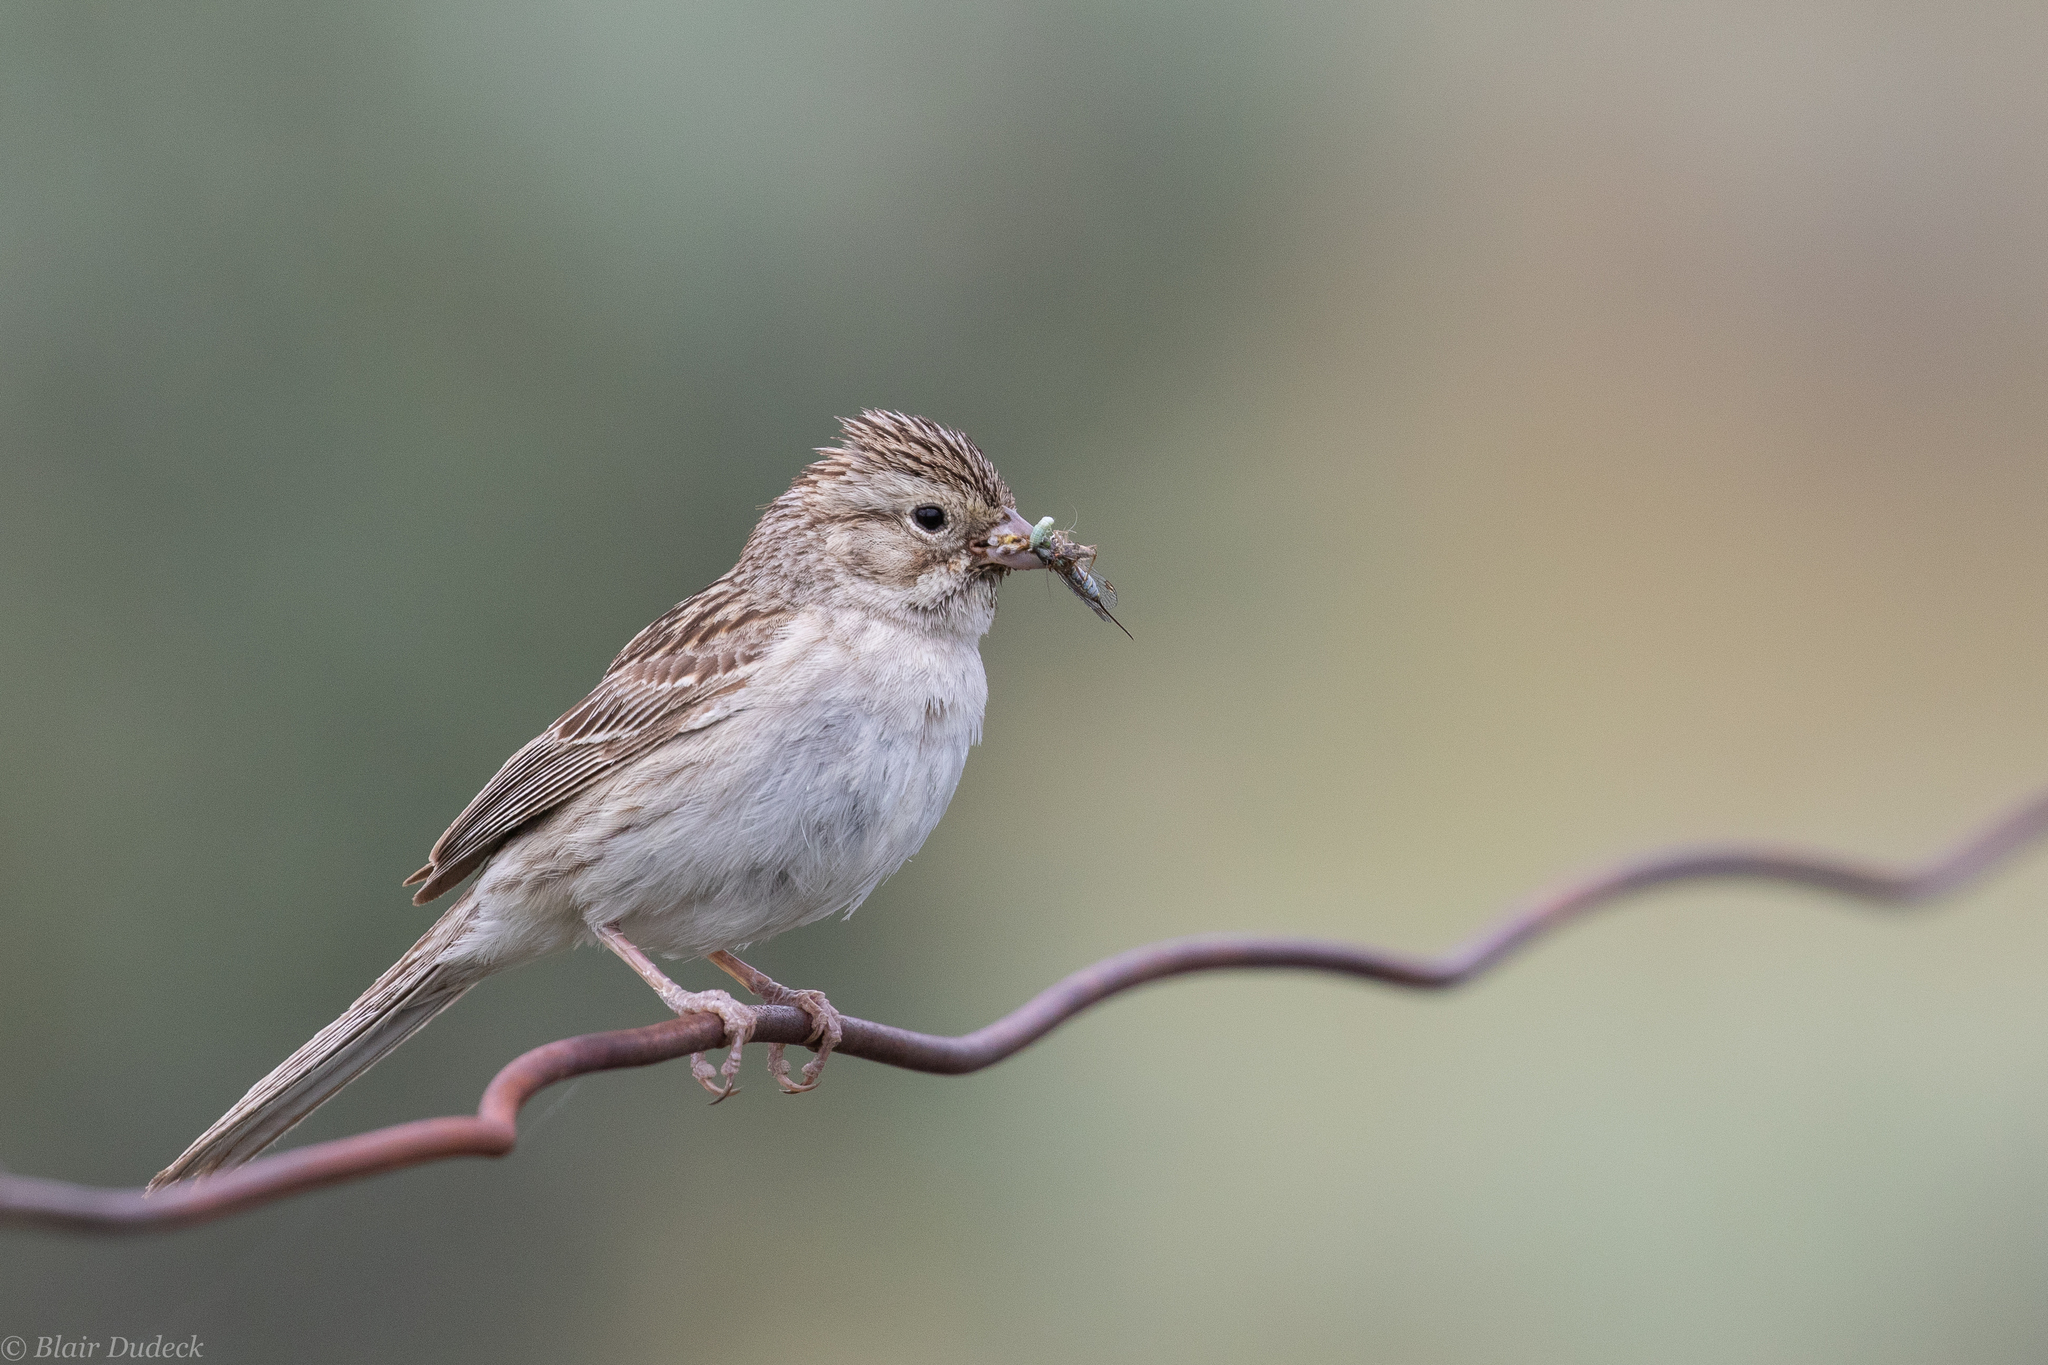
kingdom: Animalia
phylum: Chordata
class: Aves
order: Passeriformes
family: Passerellidae
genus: Spizella
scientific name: Spizella breweri
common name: Brewer's sparrow
